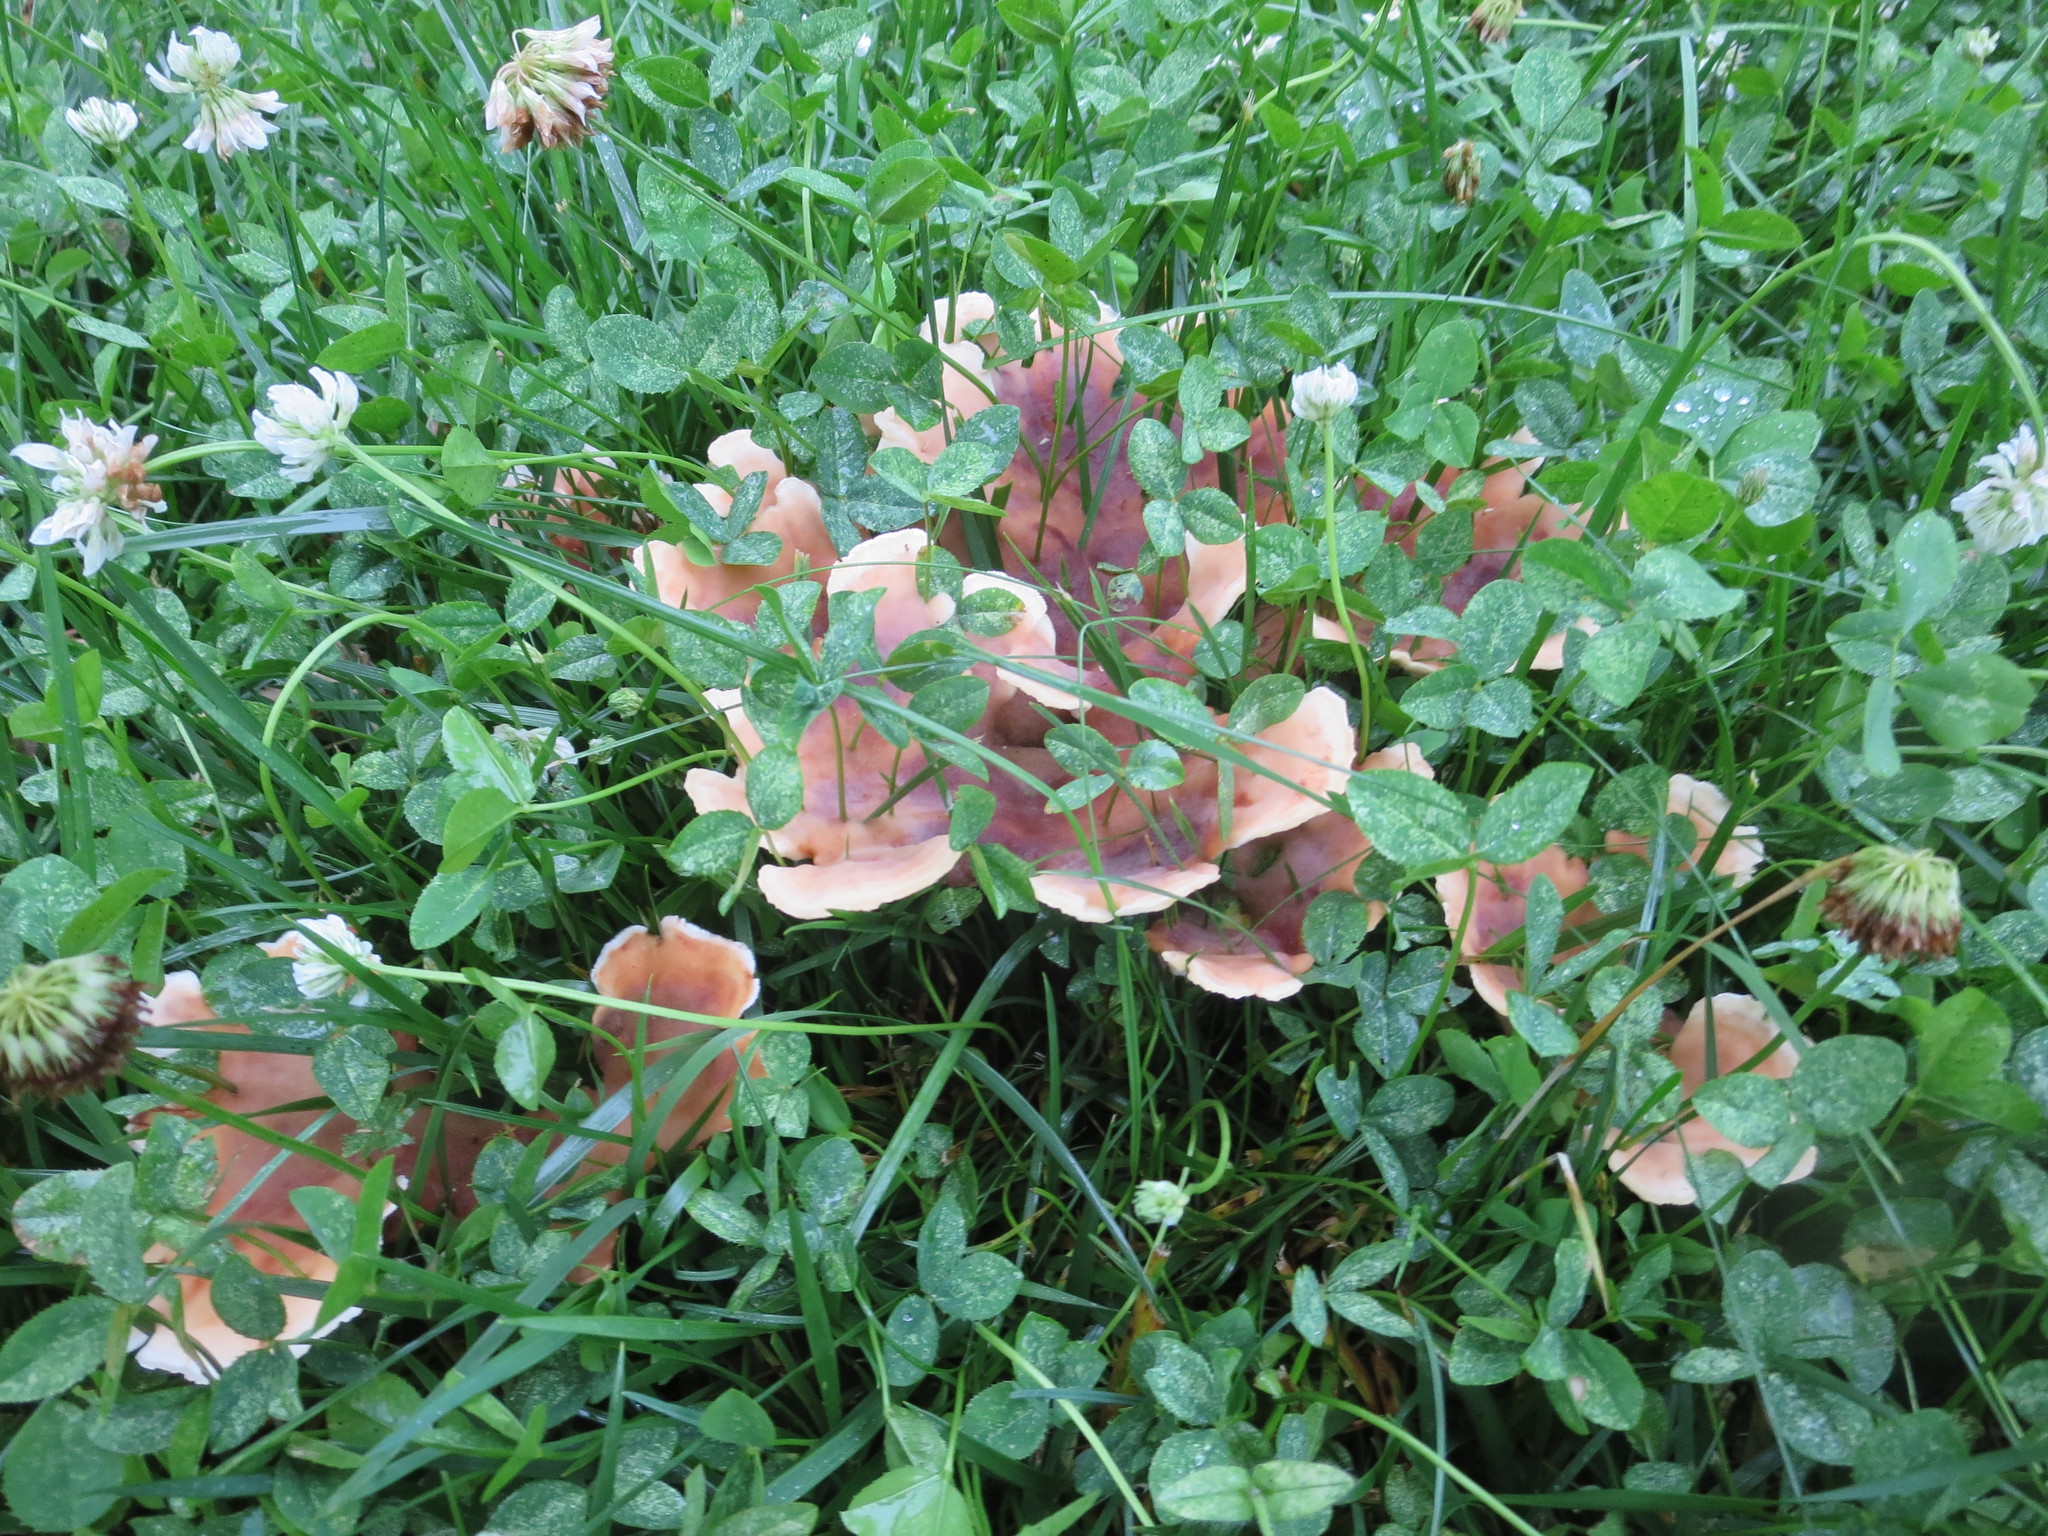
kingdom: Fungi
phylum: Basidiomycota
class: Agaricomycetes
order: Polyporales
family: Podoscyphaceae
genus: Abortiporus
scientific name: Abortiporus biennis
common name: Blushing rosette
